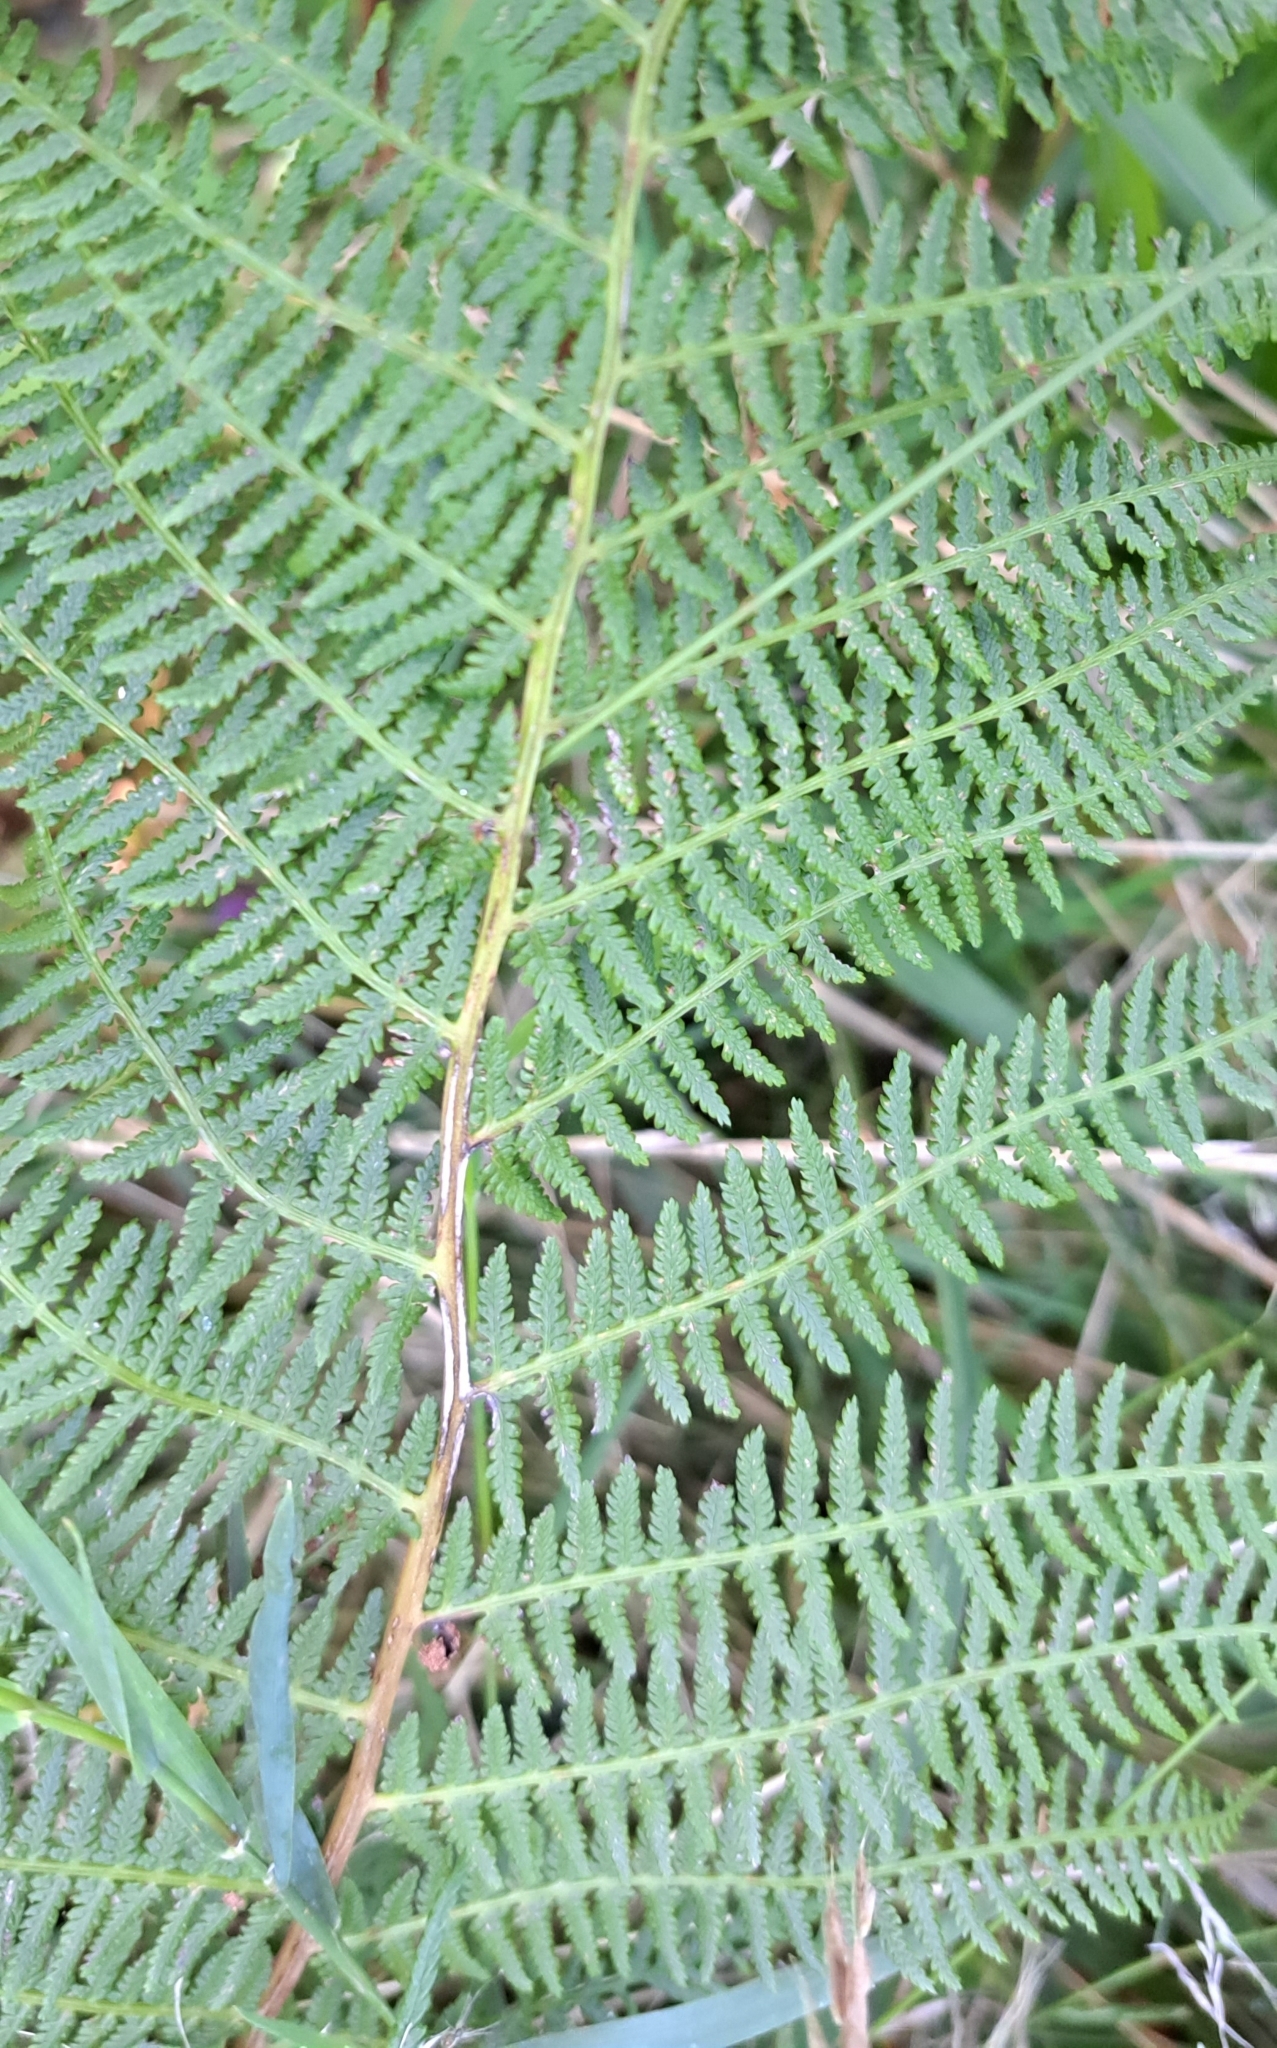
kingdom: Plantae
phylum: Tracheophyta
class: Polypodiopsida
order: Polypodiales
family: Athyriaceae
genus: Athyrium
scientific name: Athyrium filix-femina
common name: Lady fern
